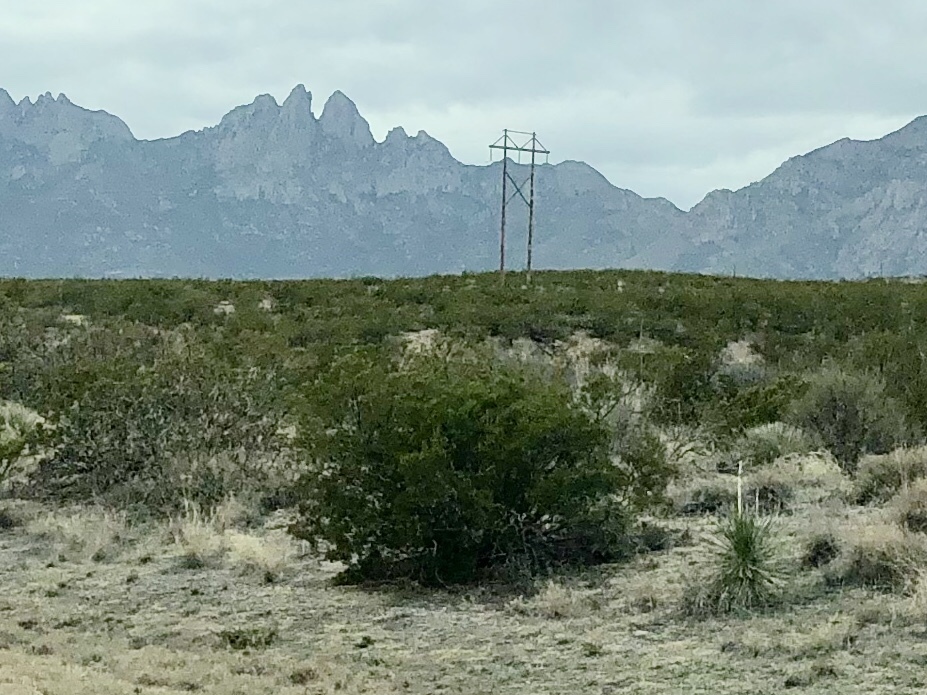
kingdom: Plantae
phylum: Tracheophyta
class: Magnoliopsida
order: Zygophyllales
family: Zygophyllaceae
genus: Larrea
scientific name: Larrea tridentata
